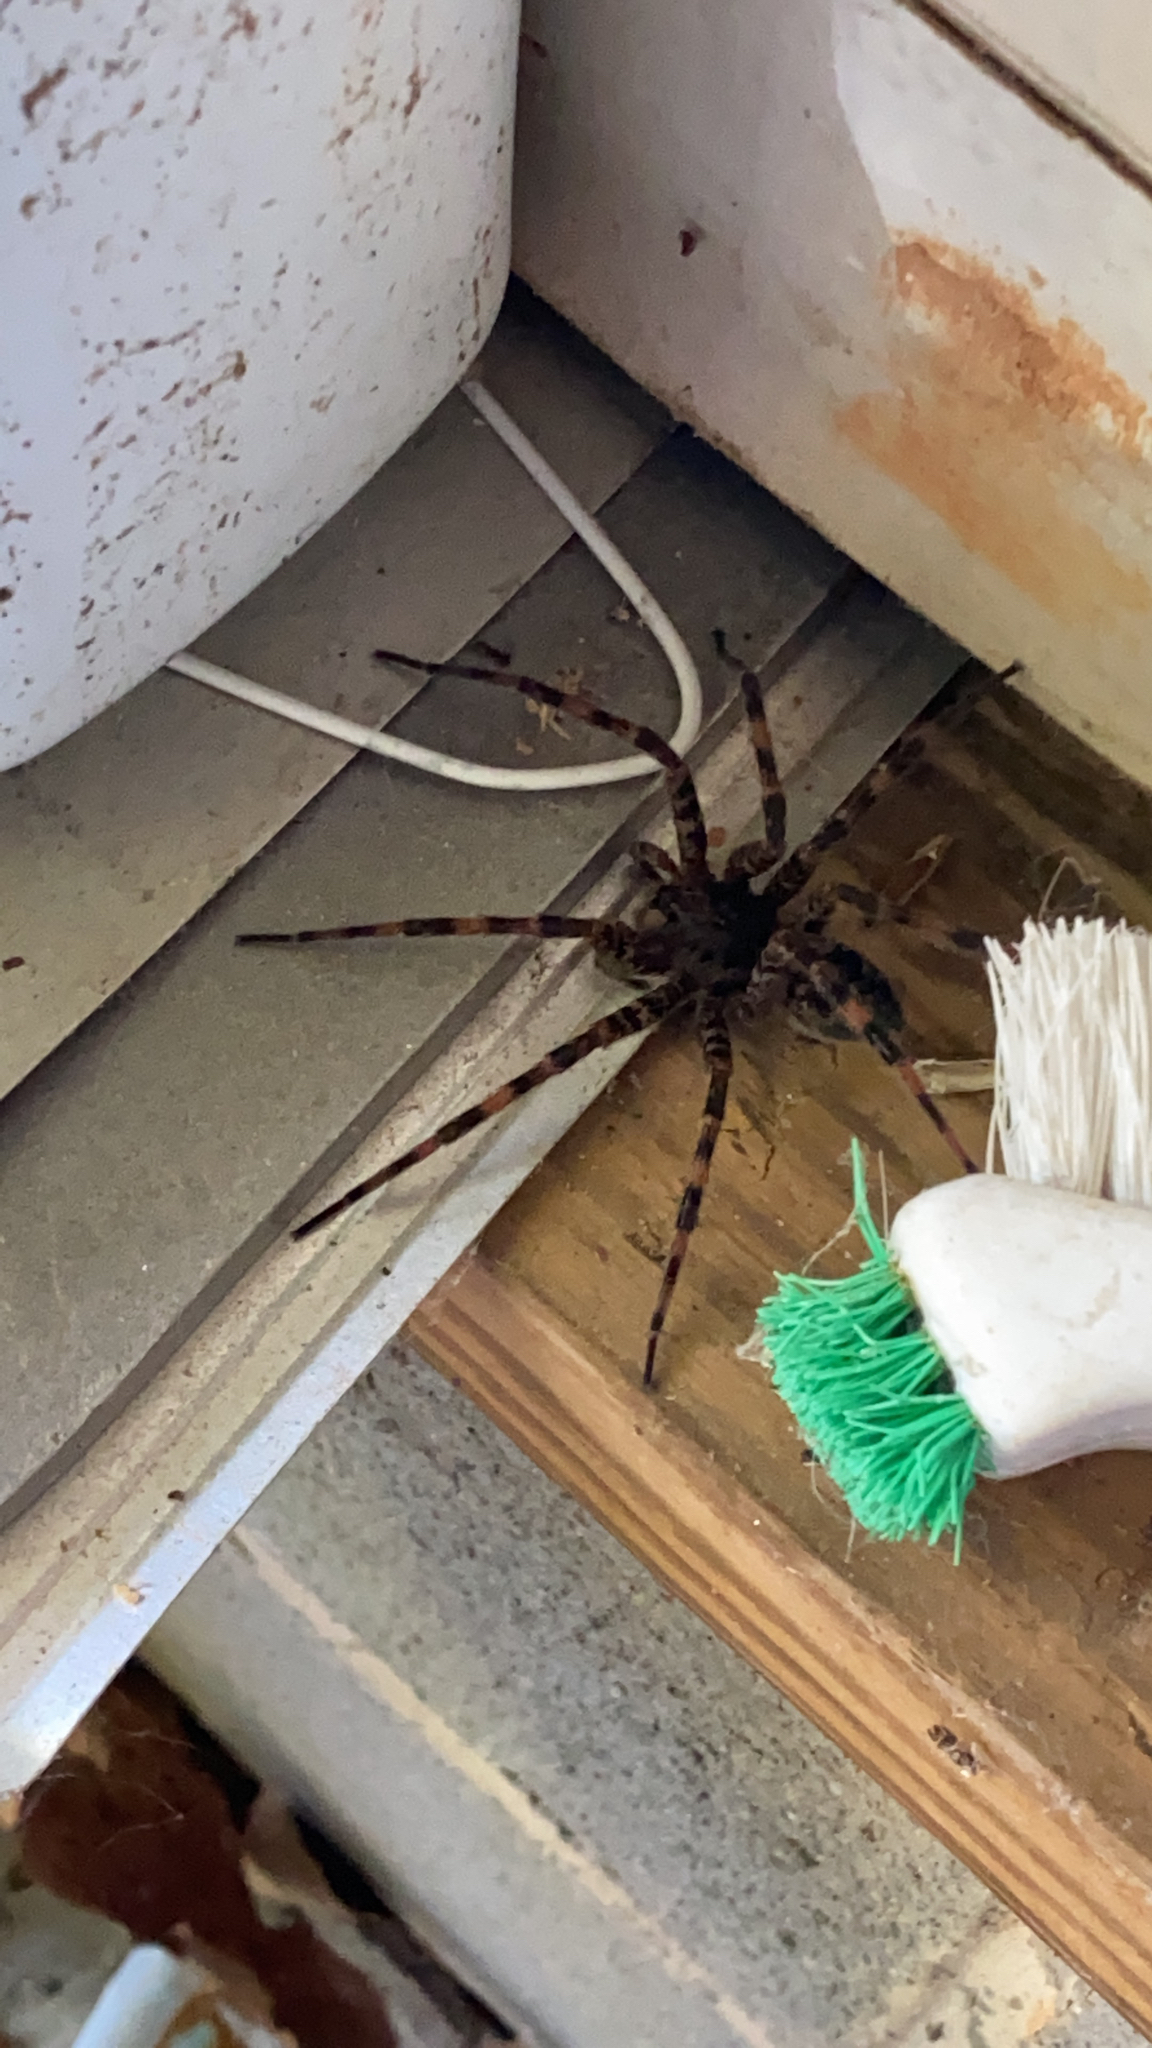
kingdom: Animalia
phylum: Arthropoda
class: Arachnida
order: Araneae
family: Pisauridae
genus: Dolomedes
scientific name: Dolomedes tenebrosus
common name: Dark fishing spider
